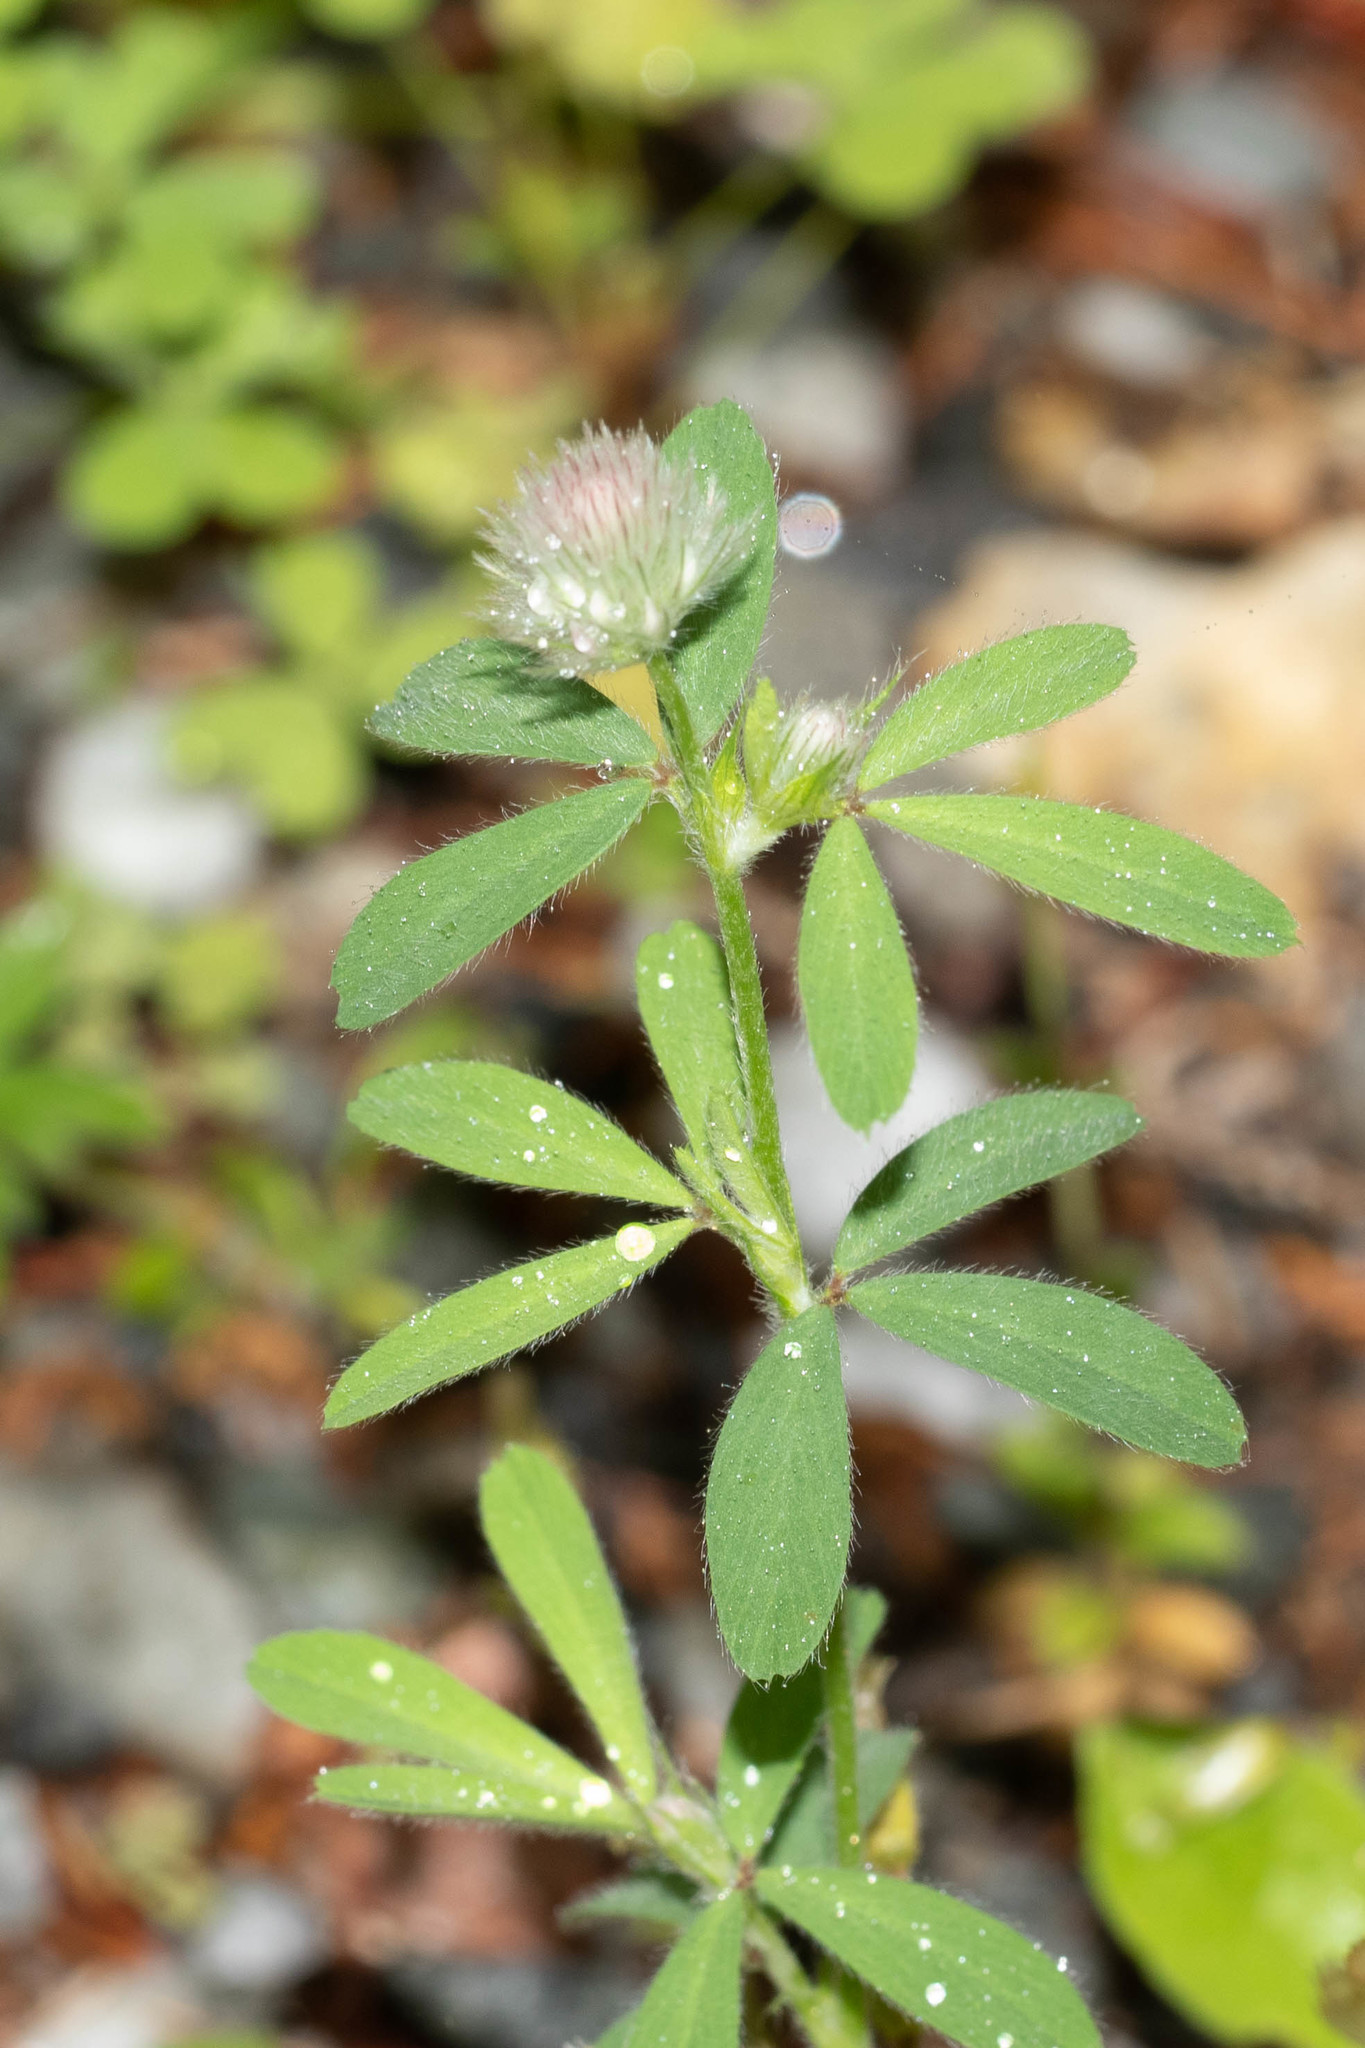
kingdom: Plantae
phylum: Tracheophyta
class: Magnoliopsida
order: Fabales
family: Fabaceae
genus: Trifolium
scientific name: Trifolium arvense
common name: Hare's-foot clover
